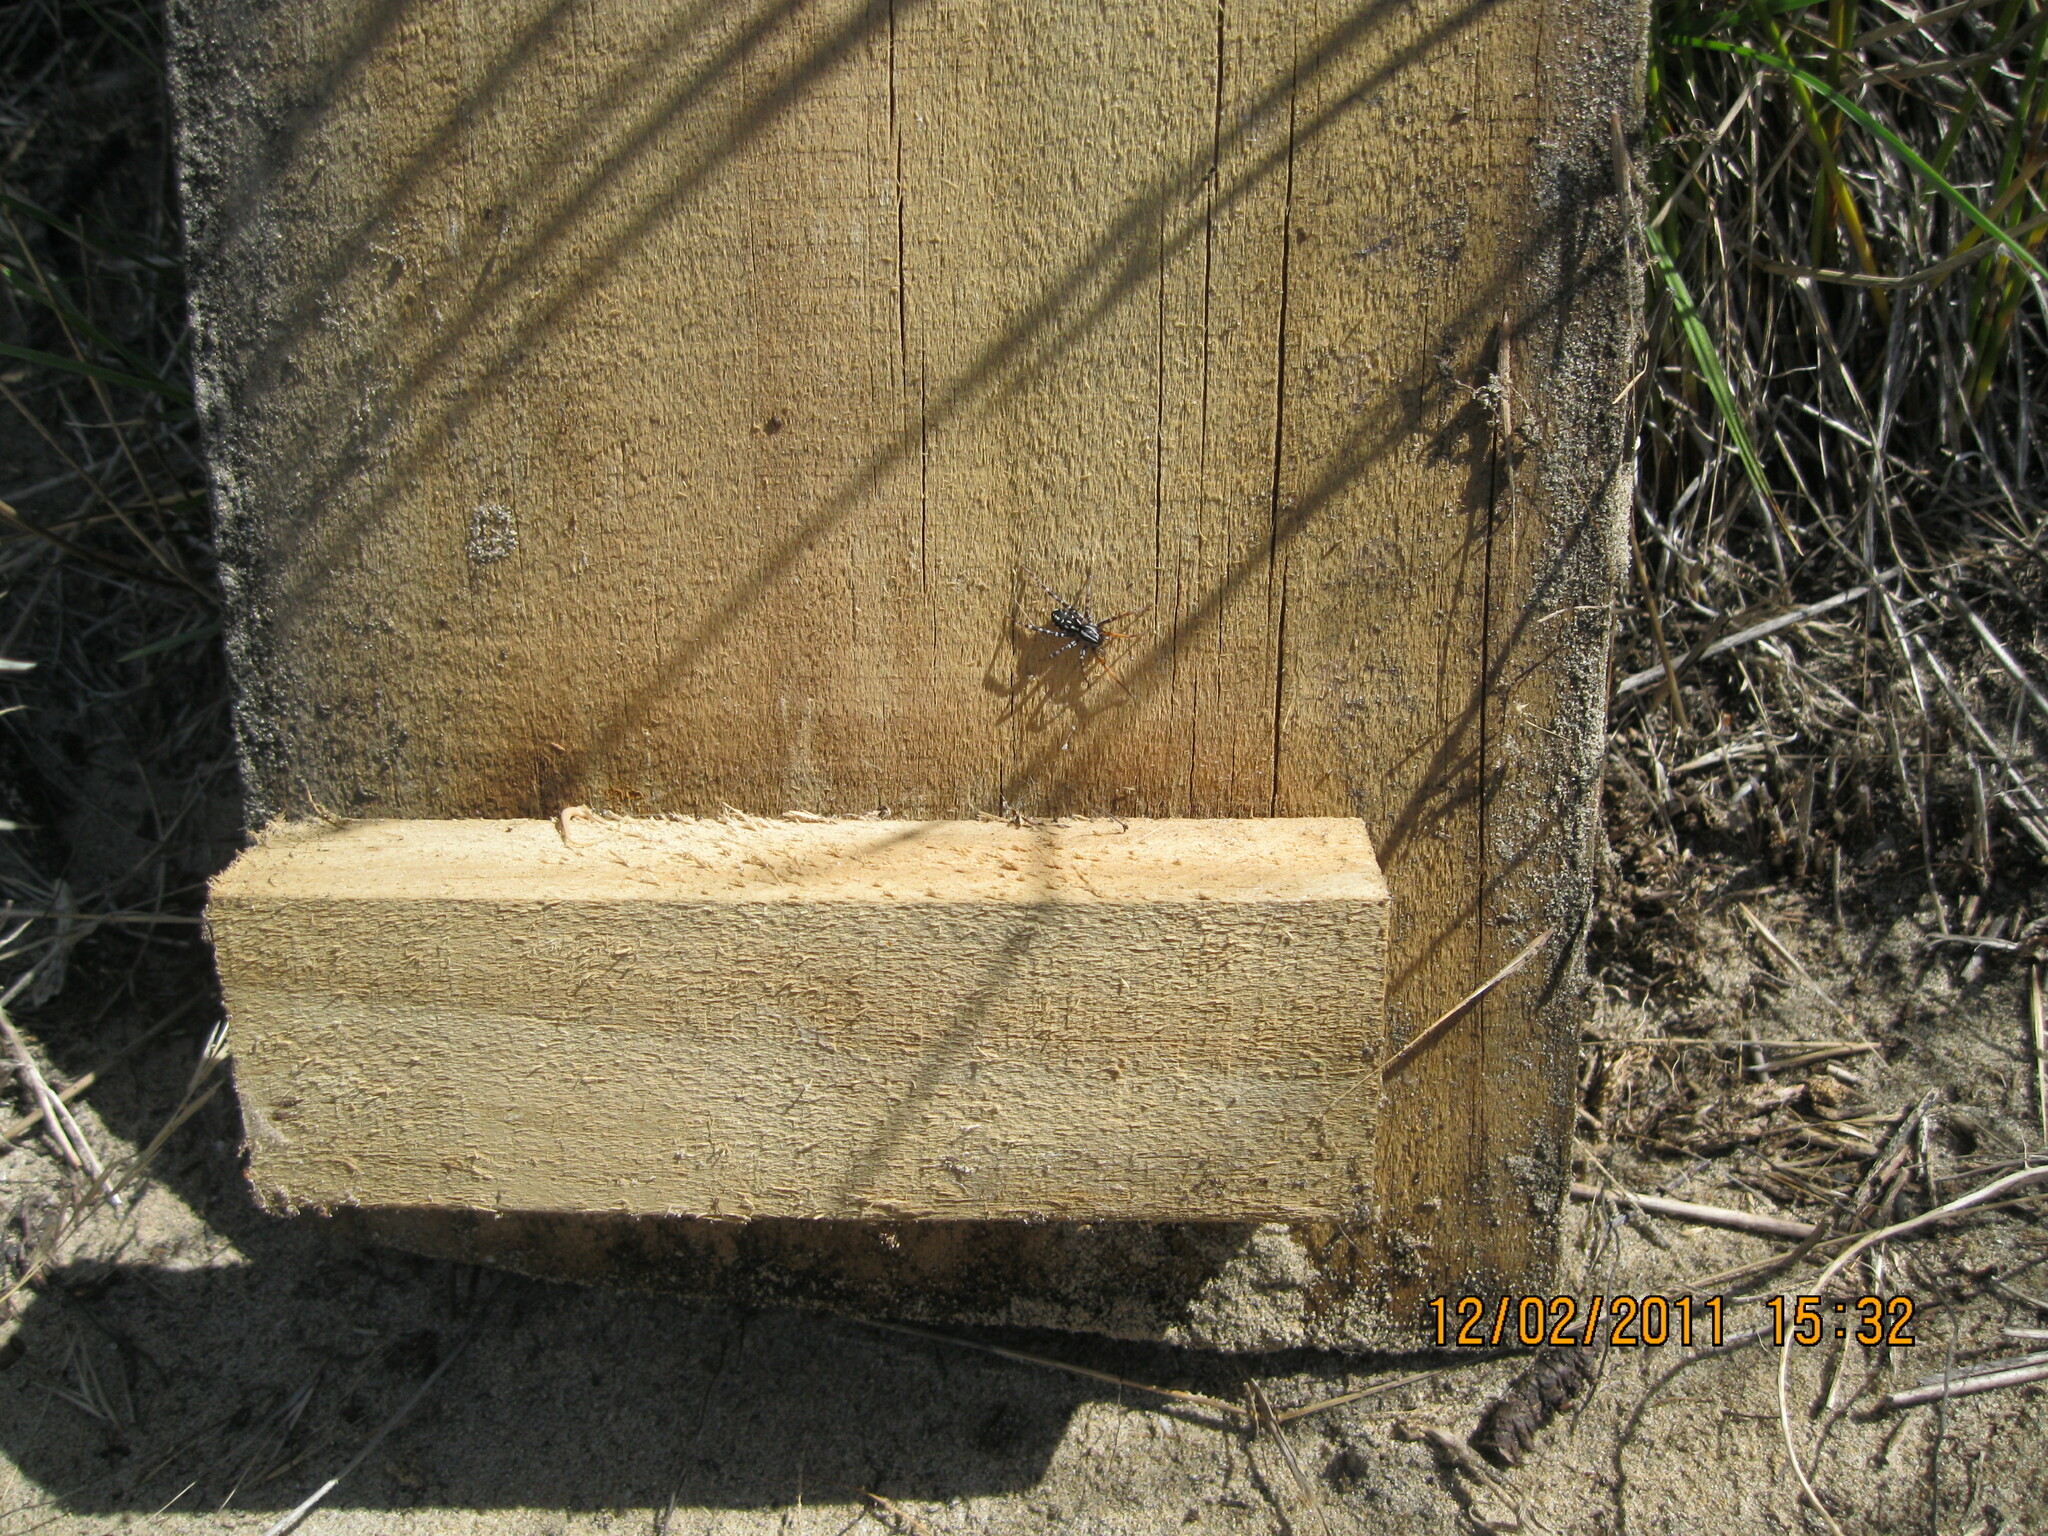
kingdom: Animalia
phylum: Arthropoda
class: Arachnida
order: Araneae
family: Corinnidae
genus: Nyssus
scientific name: Nyssus coloripes
